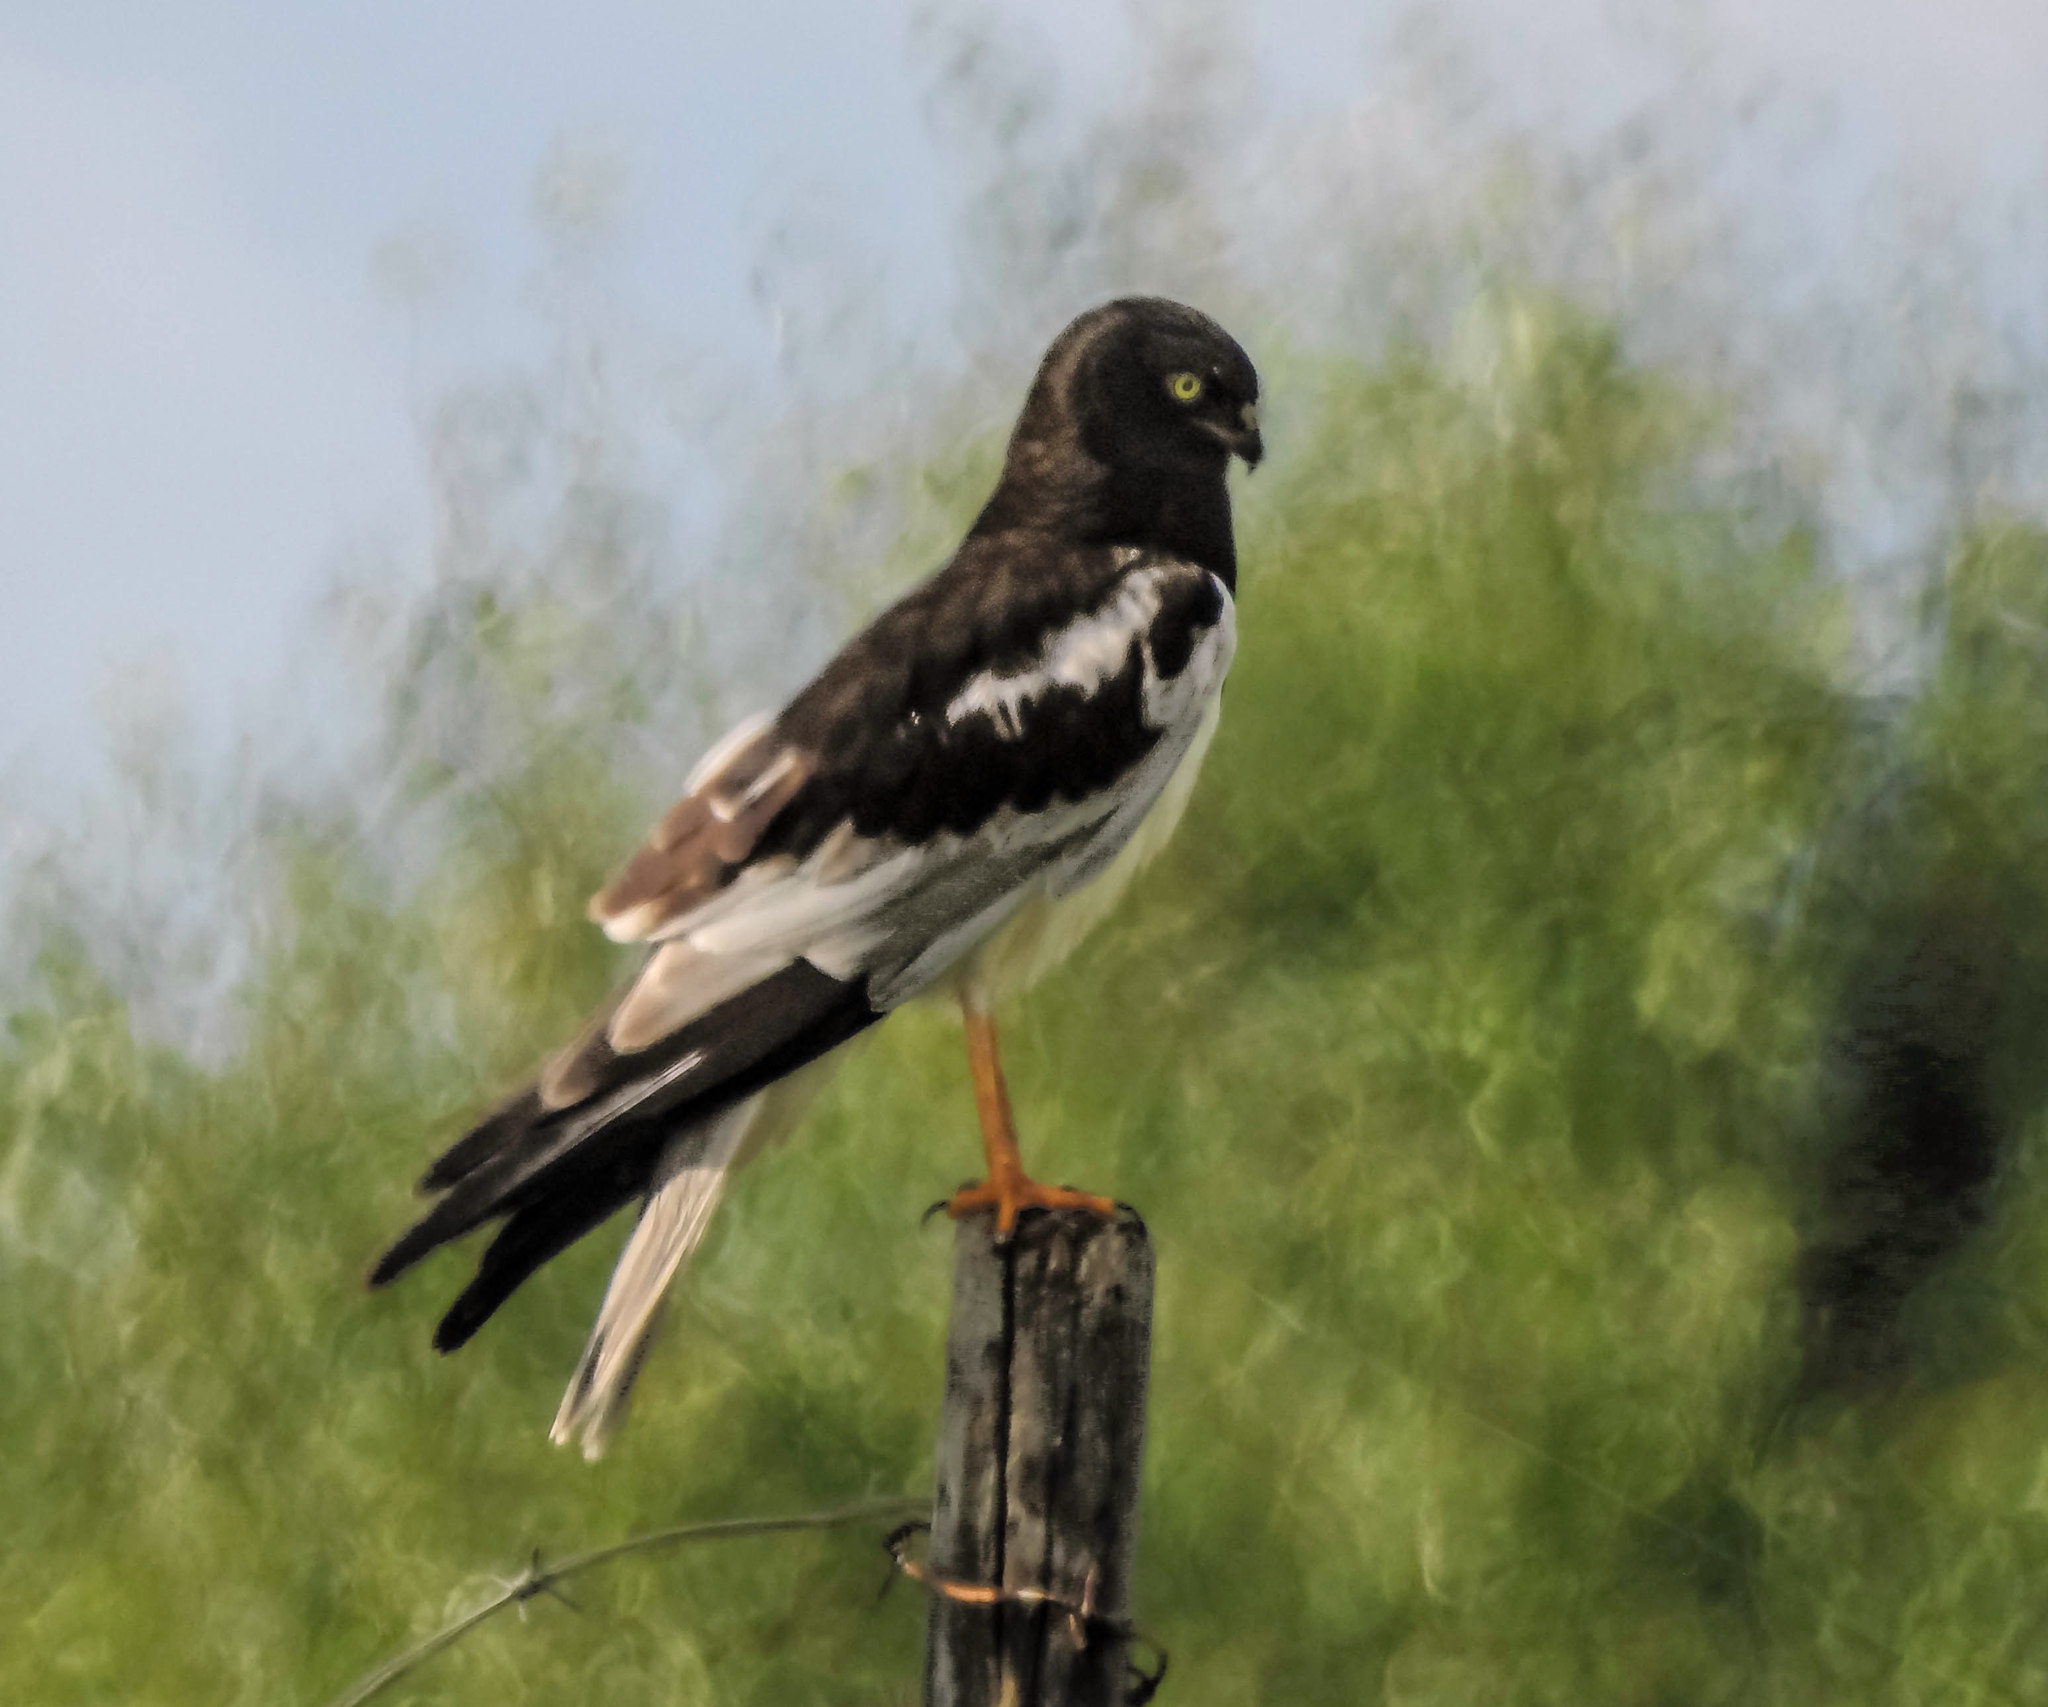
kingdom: Animalia
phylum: Chordata
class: Aves
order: Accipitriformes
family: Accipitridae
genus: Circus
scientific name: Circus melanoleucos
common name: Pied harrier
